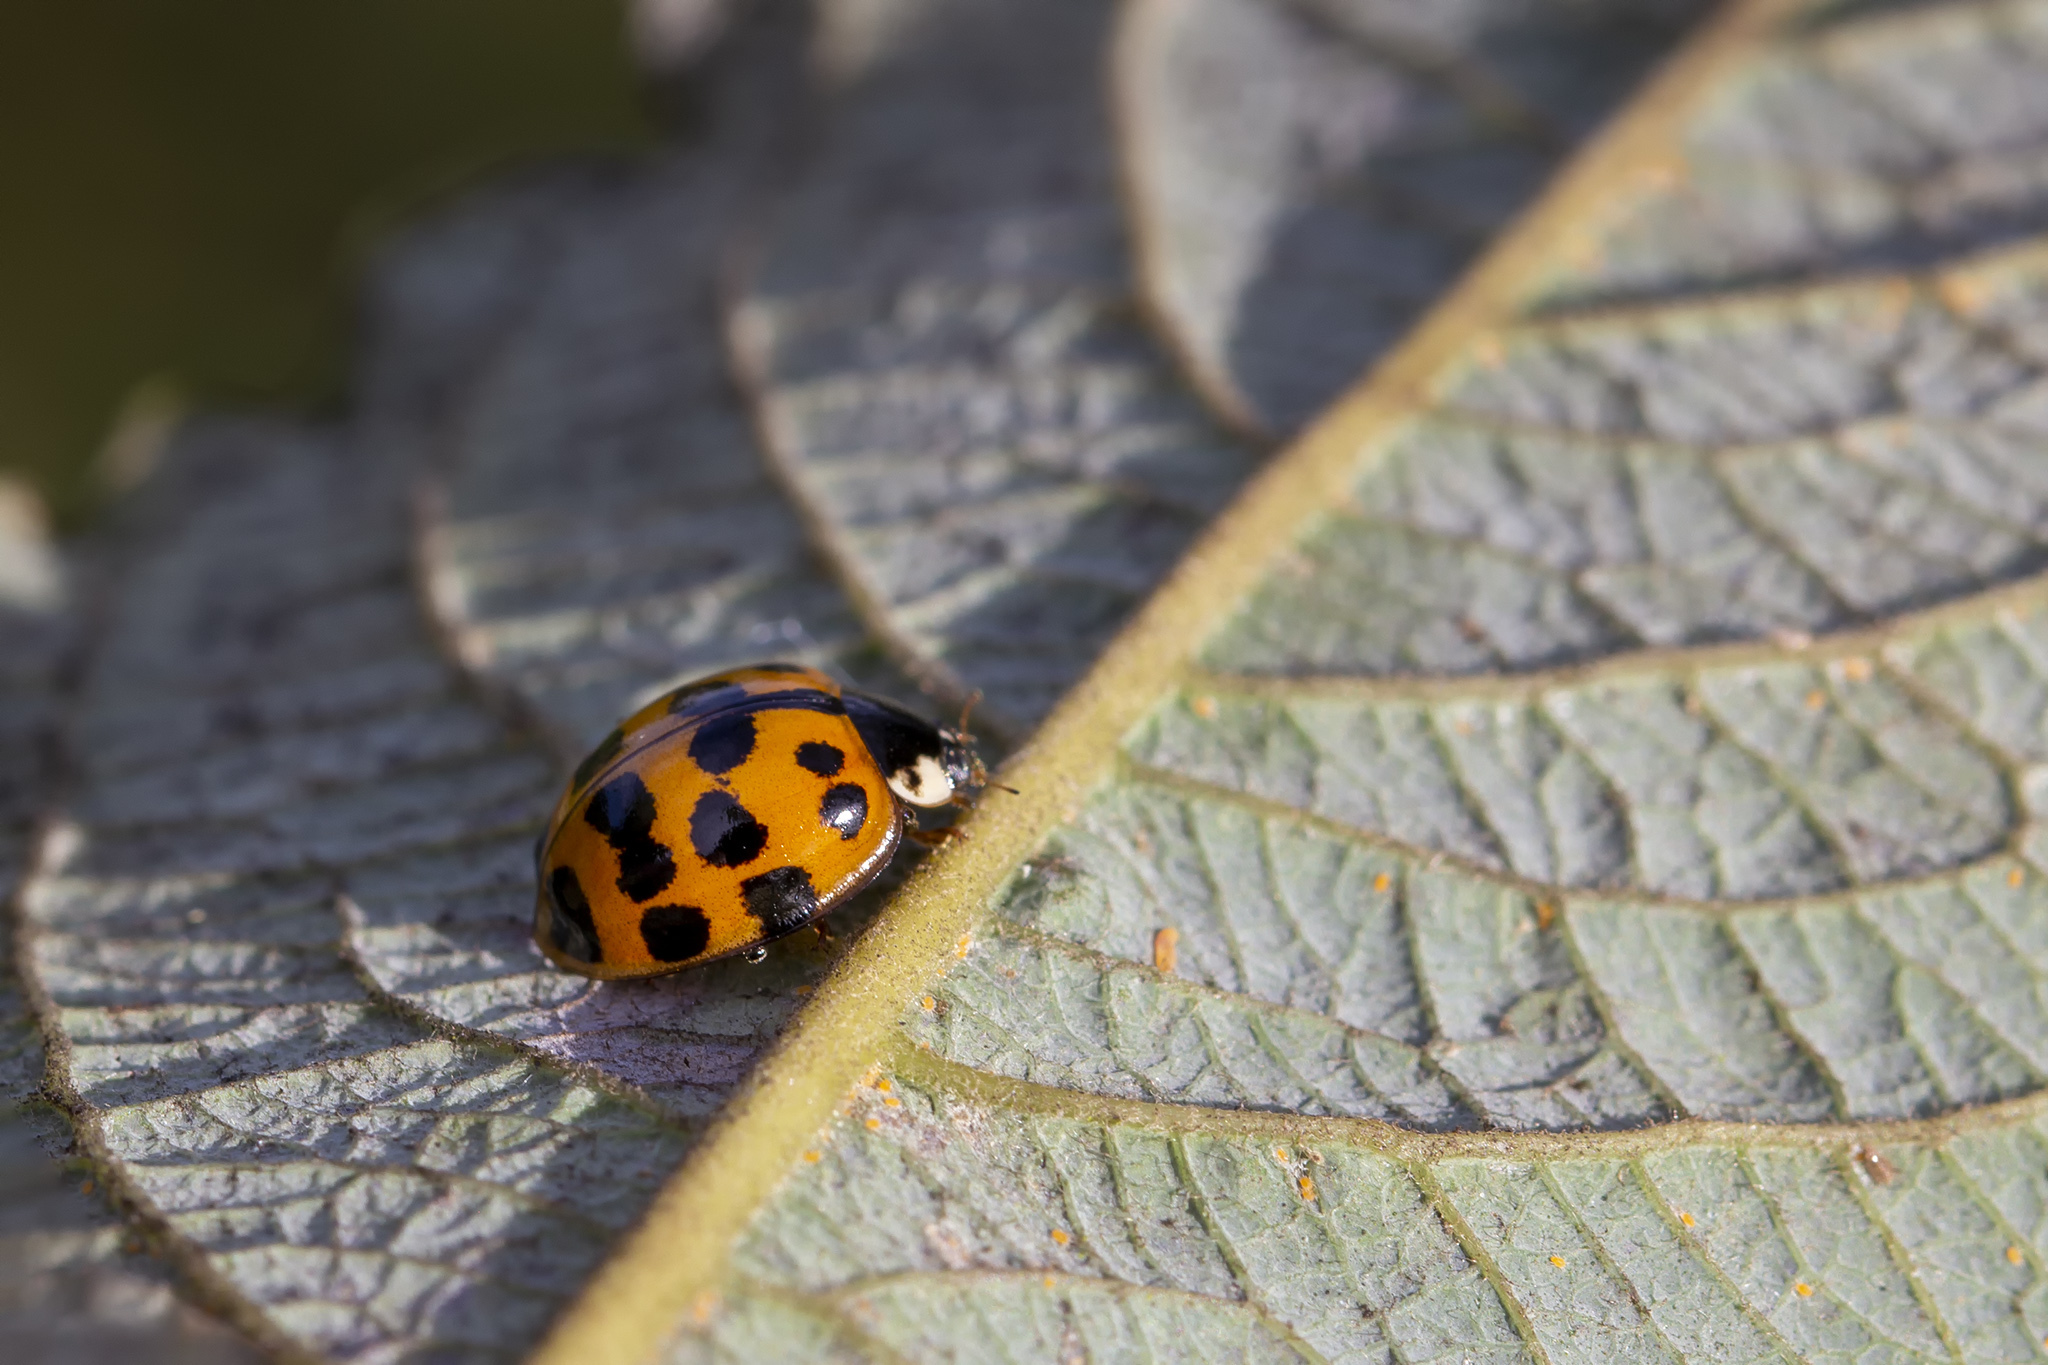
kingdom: Animalia
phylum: Arthropoda
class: Insecta
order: Coleoptera
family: Coccinellidae
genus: Harmonia
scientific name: Harmonia axyridis
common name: Harlequin ladybird
